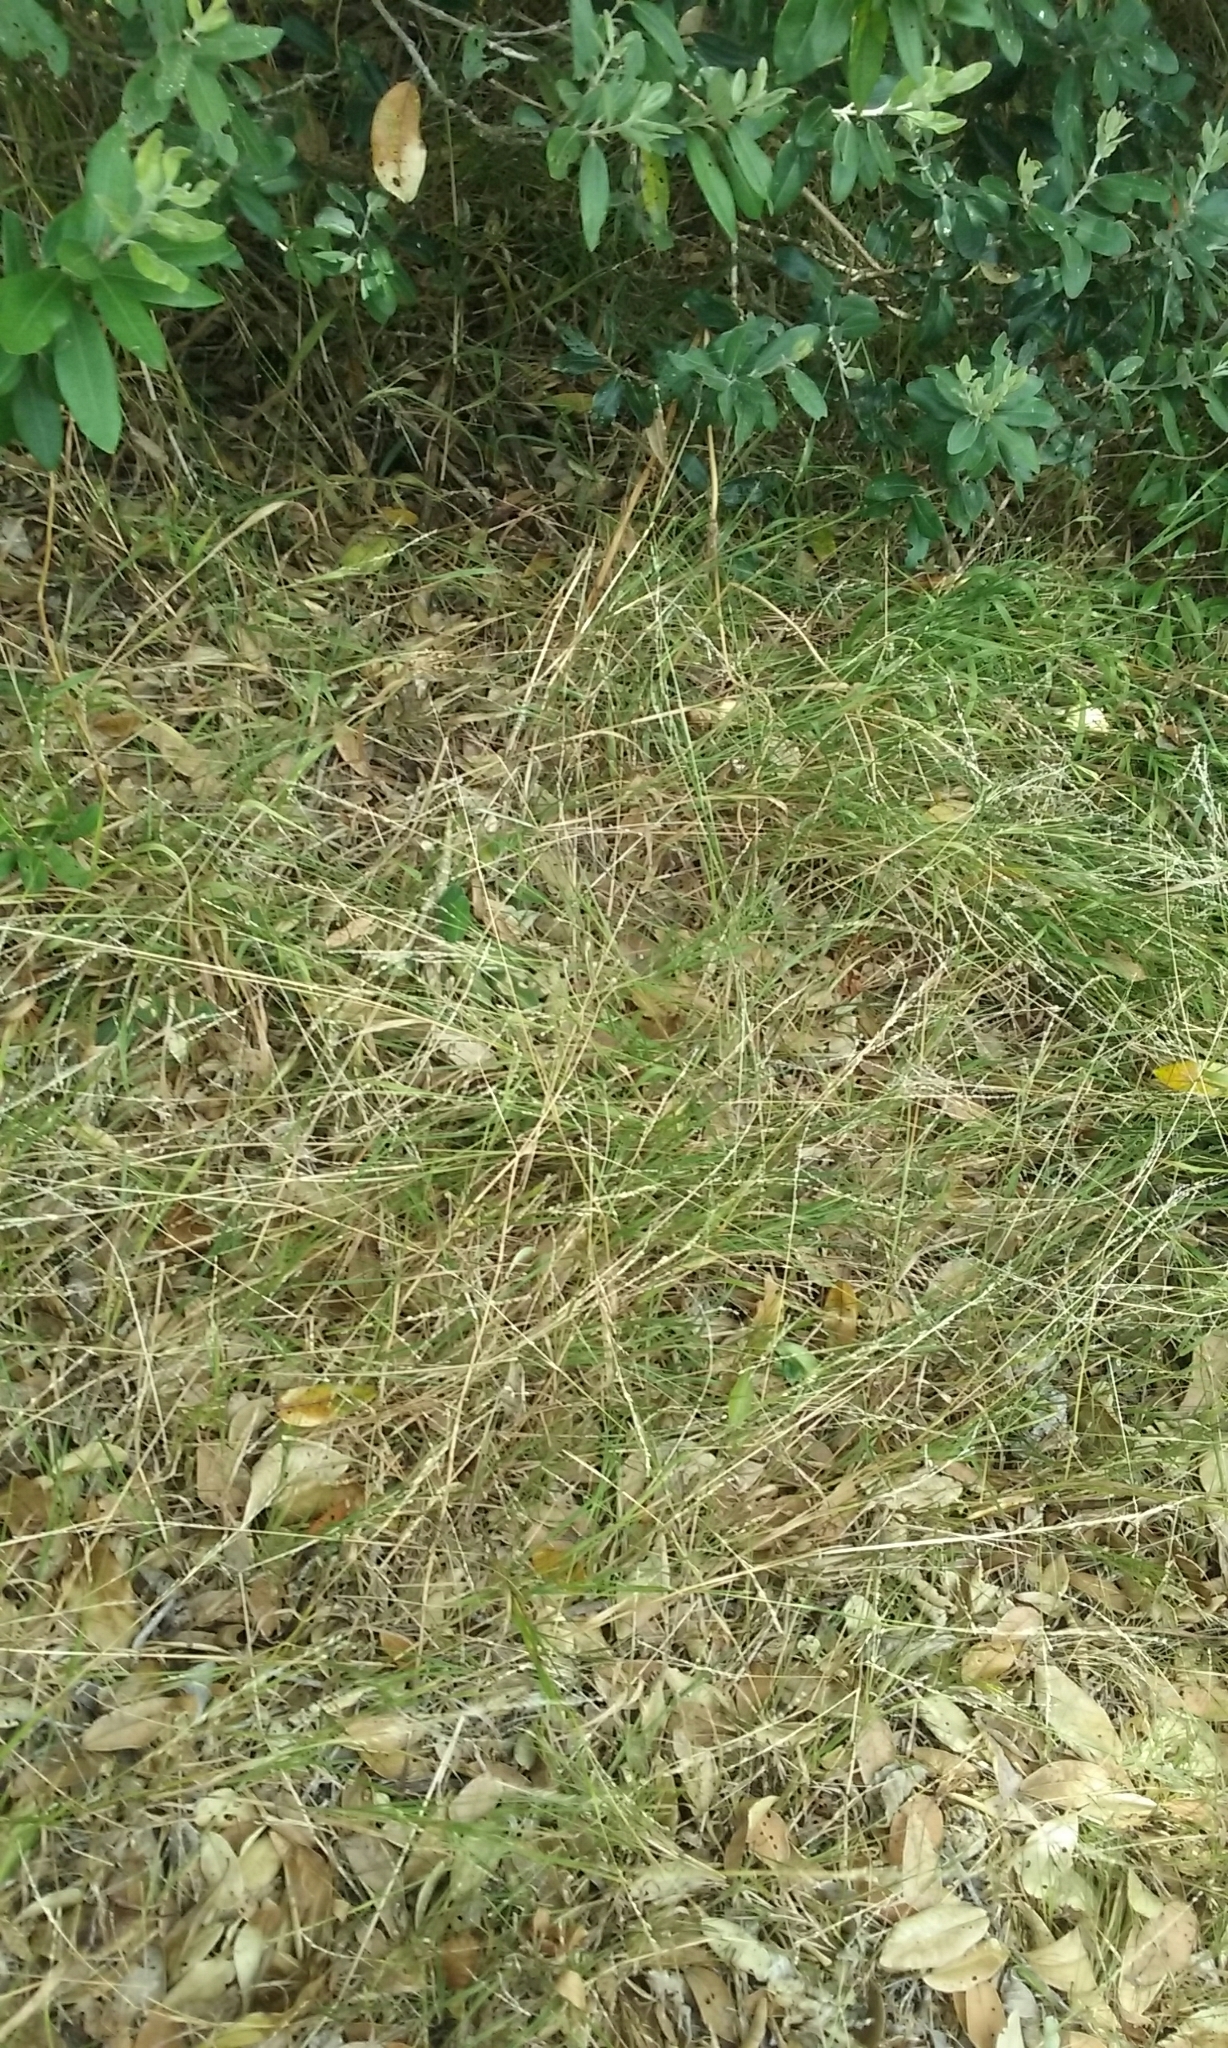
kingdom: Plantae
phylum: Tracheophyta
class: Liliopsida
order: Poales
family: Poaceae
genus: Ehrharta
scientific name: Ehrharta erecta
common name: Panic veldtgrass
